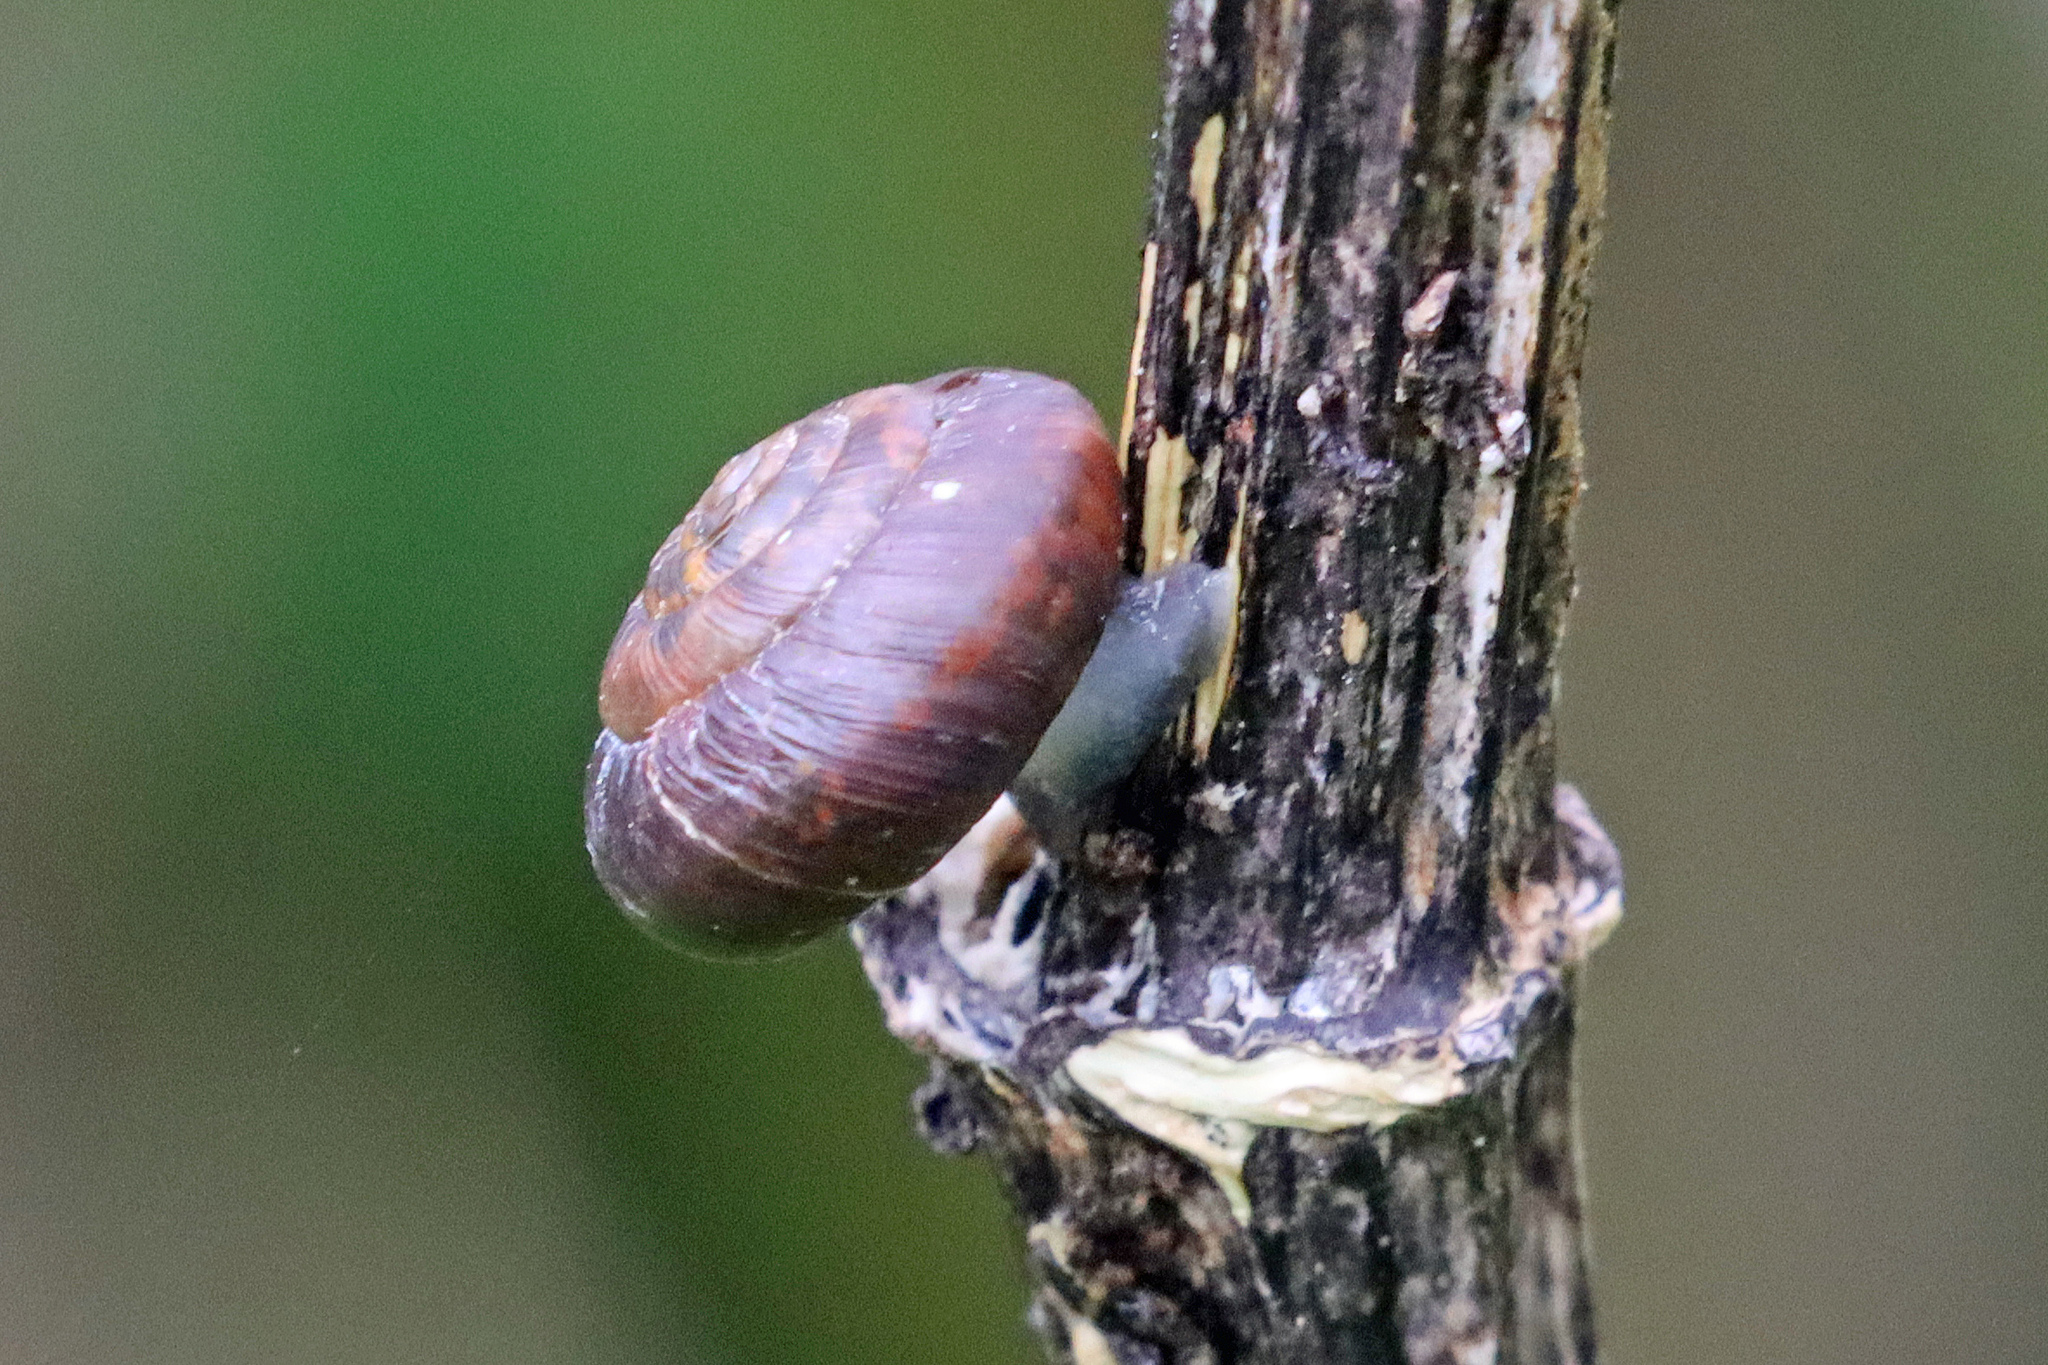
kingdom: Animalia
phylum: Mollusca
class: Gastropoda
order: Stylommatophora
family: Hygromiidae
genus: Trochulus
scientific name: Trochulus striolatus
